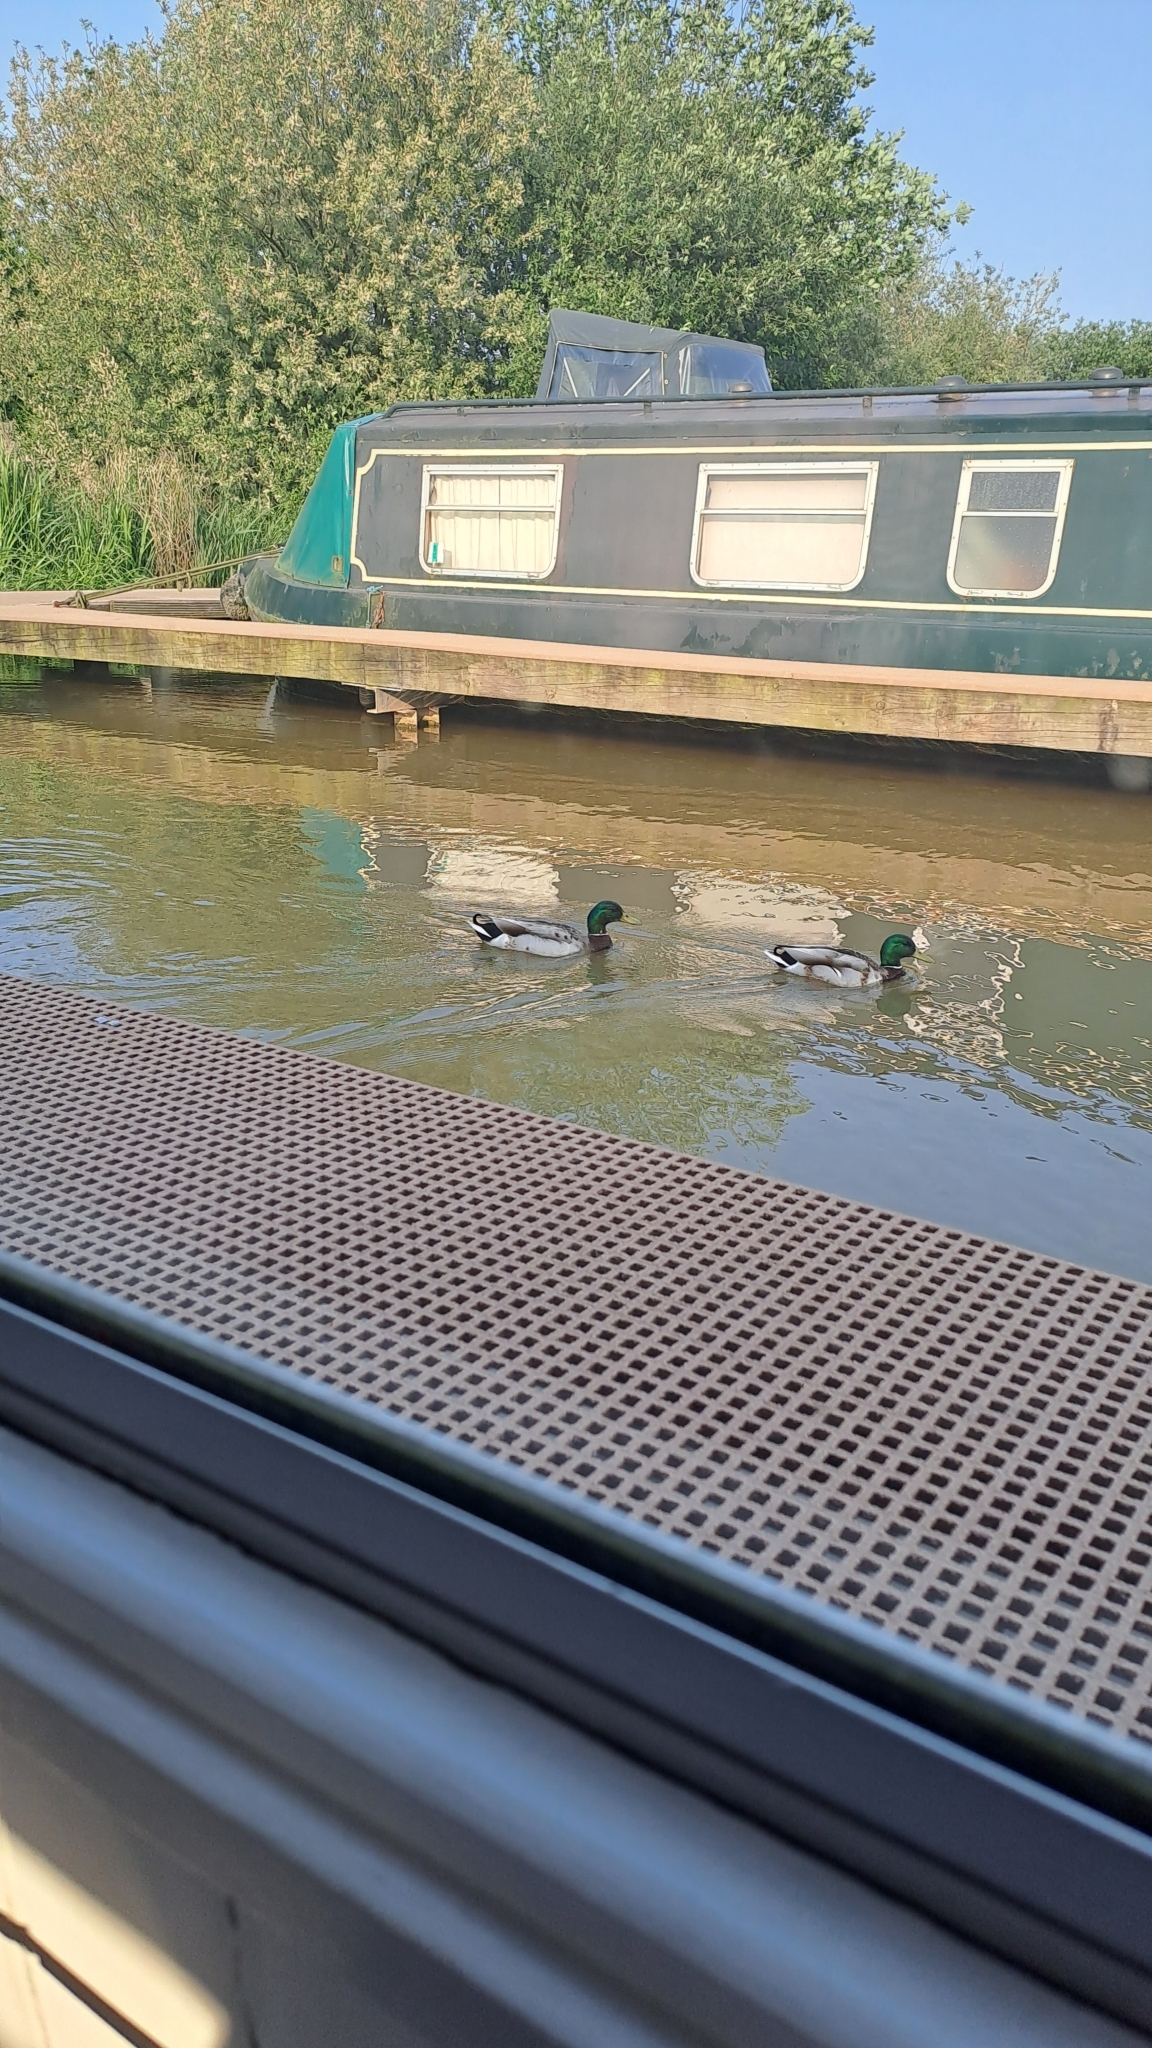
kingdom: Animalia
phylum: Chordata
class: Aves
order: Anseriformes
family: Anatidae
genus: Anas
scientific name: Anas platyrhynchos
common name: Mallard
